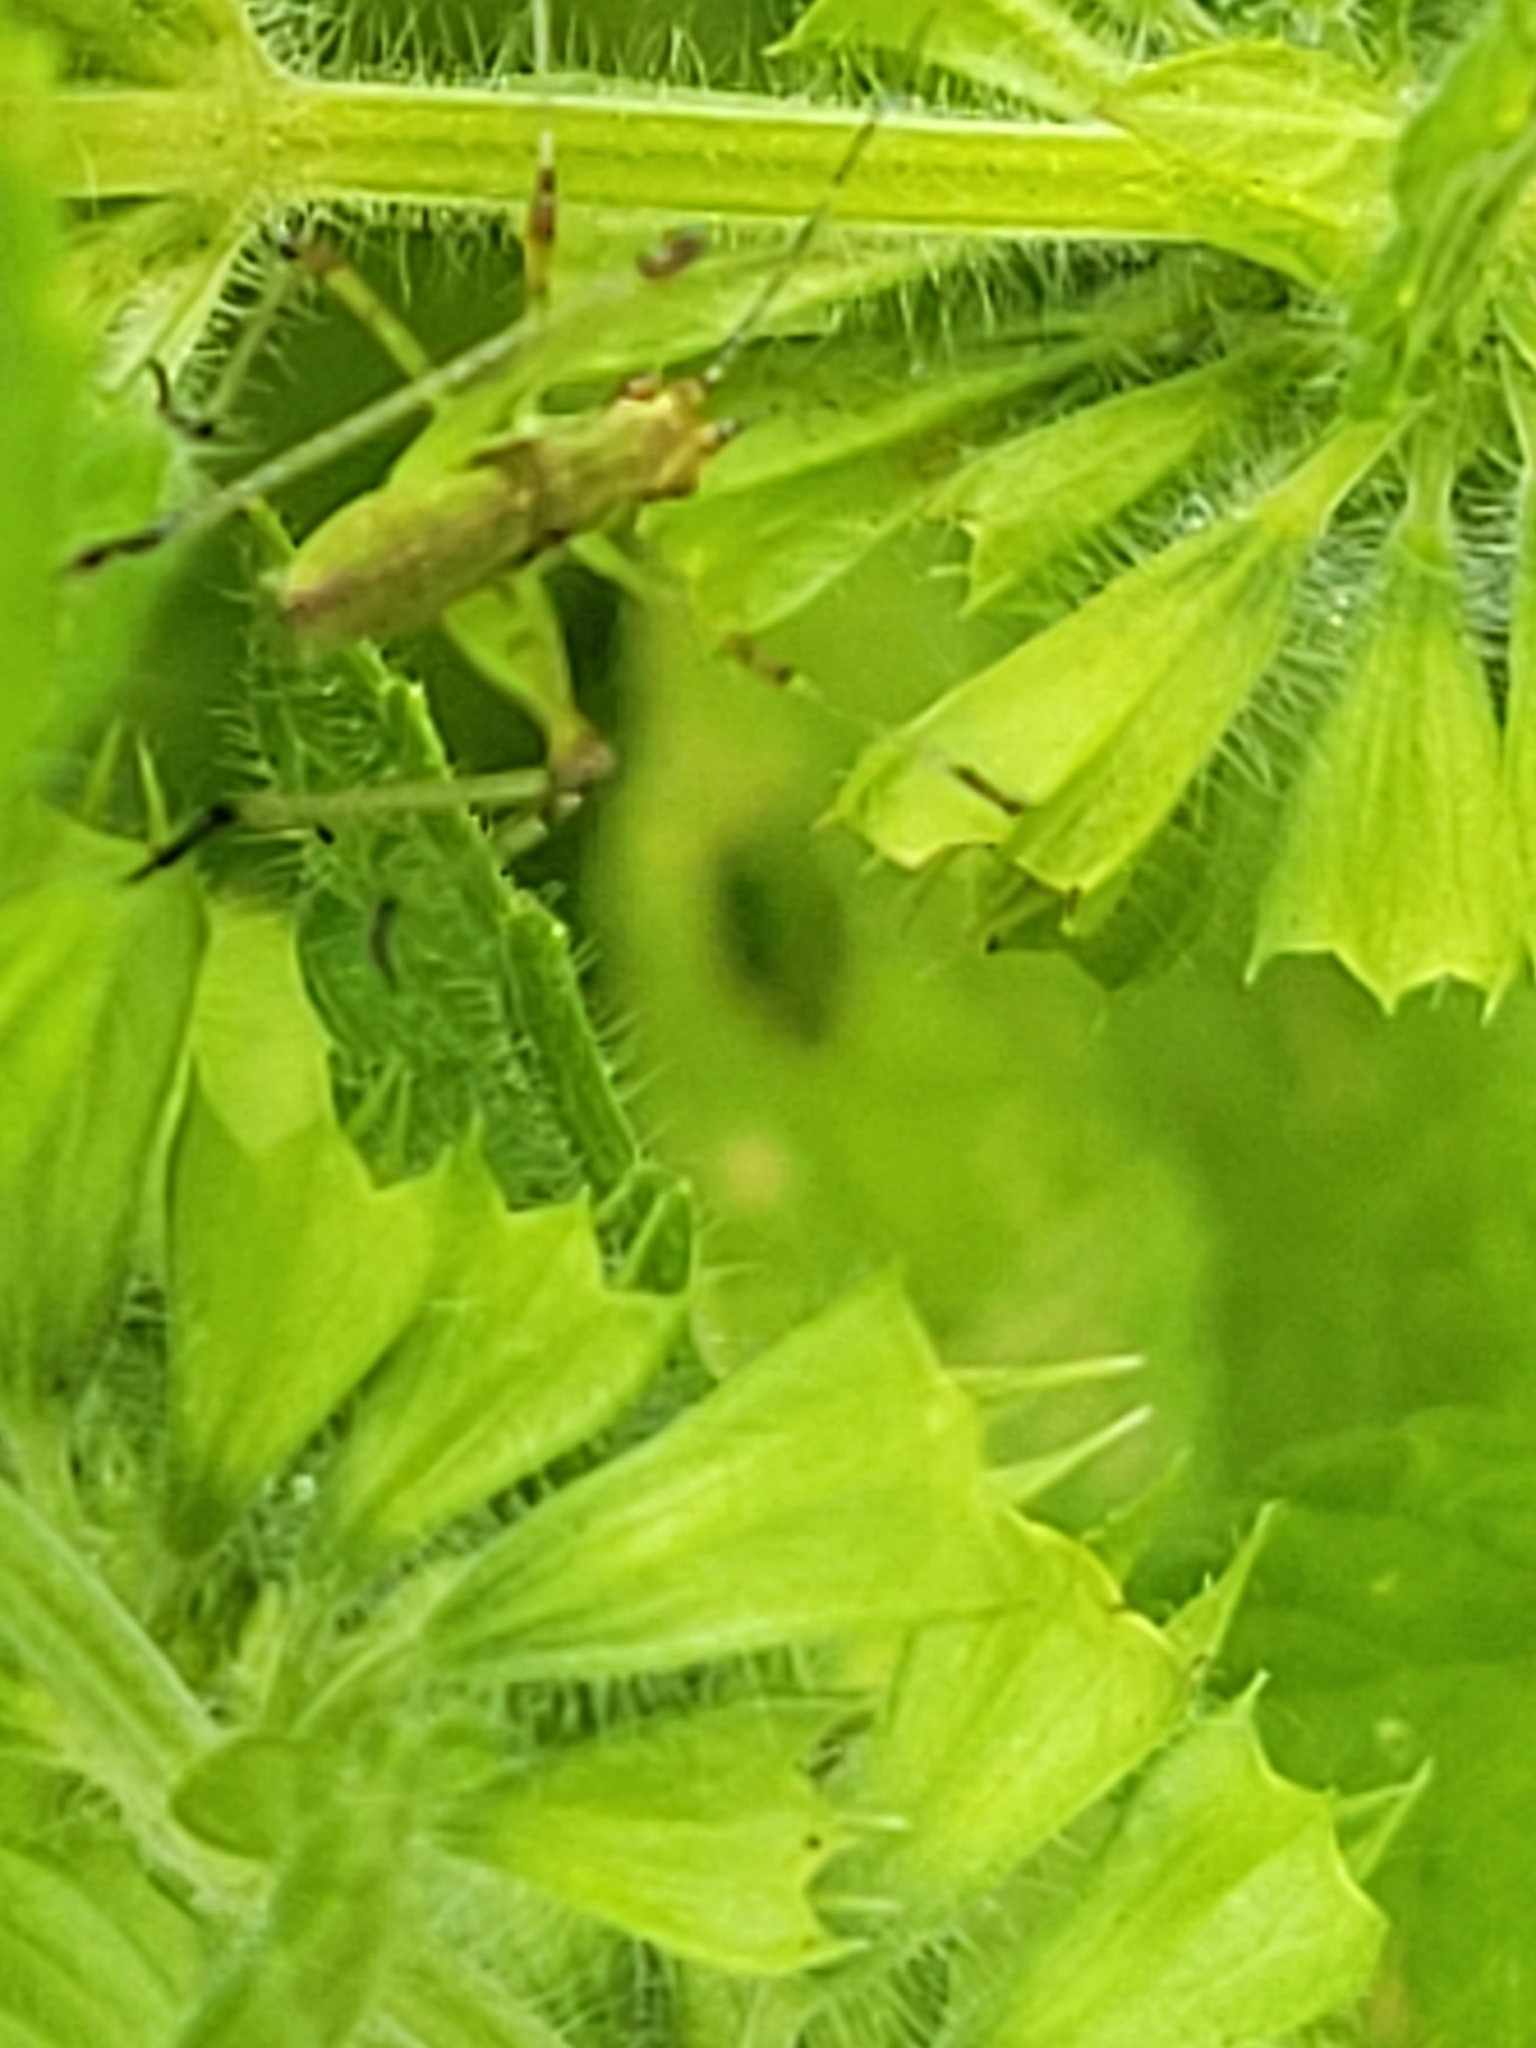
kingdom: Animalia
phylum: Arthropoda
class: Insecta
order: Orthoptera
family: Tettigoniidae
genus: Phaneroptera
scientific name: Phaneroptera nana
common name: Southern sickle bush-cricket
